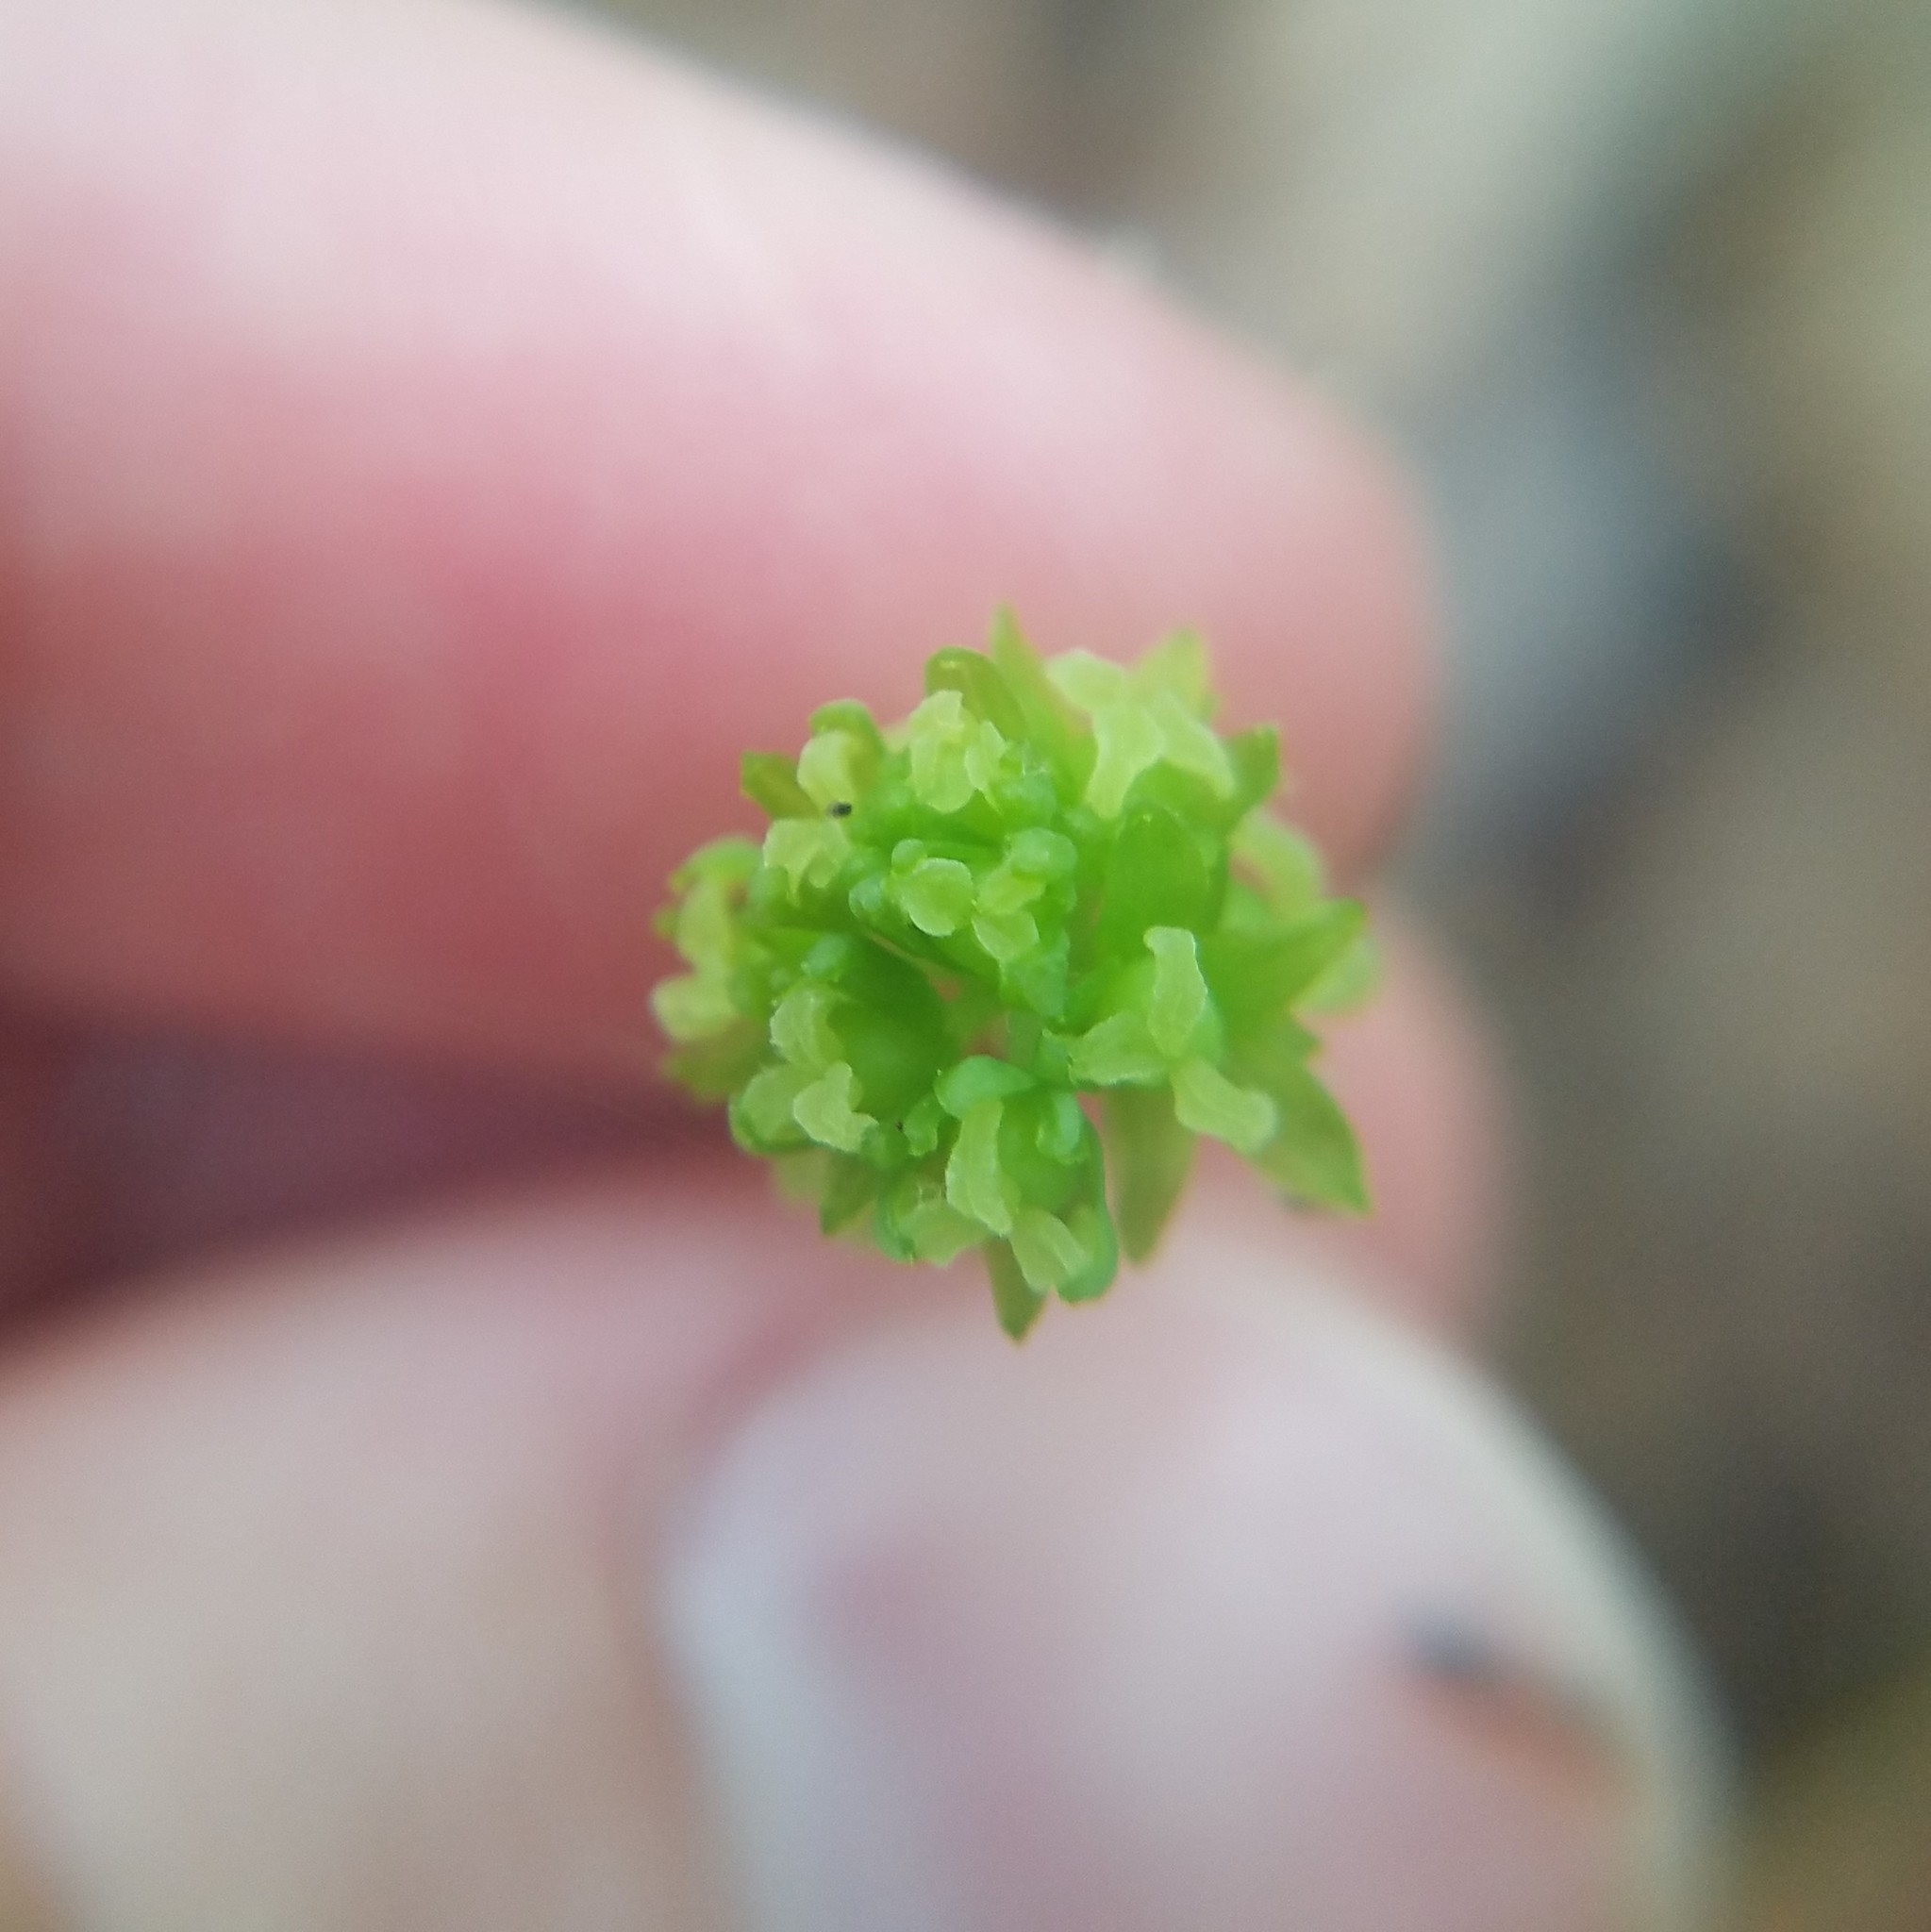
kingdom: Plantae
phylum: Tracheophyta
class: Liliopsida
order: Liliales
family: Smilacaceae
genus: Smilax
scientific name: Smilax hugeri
